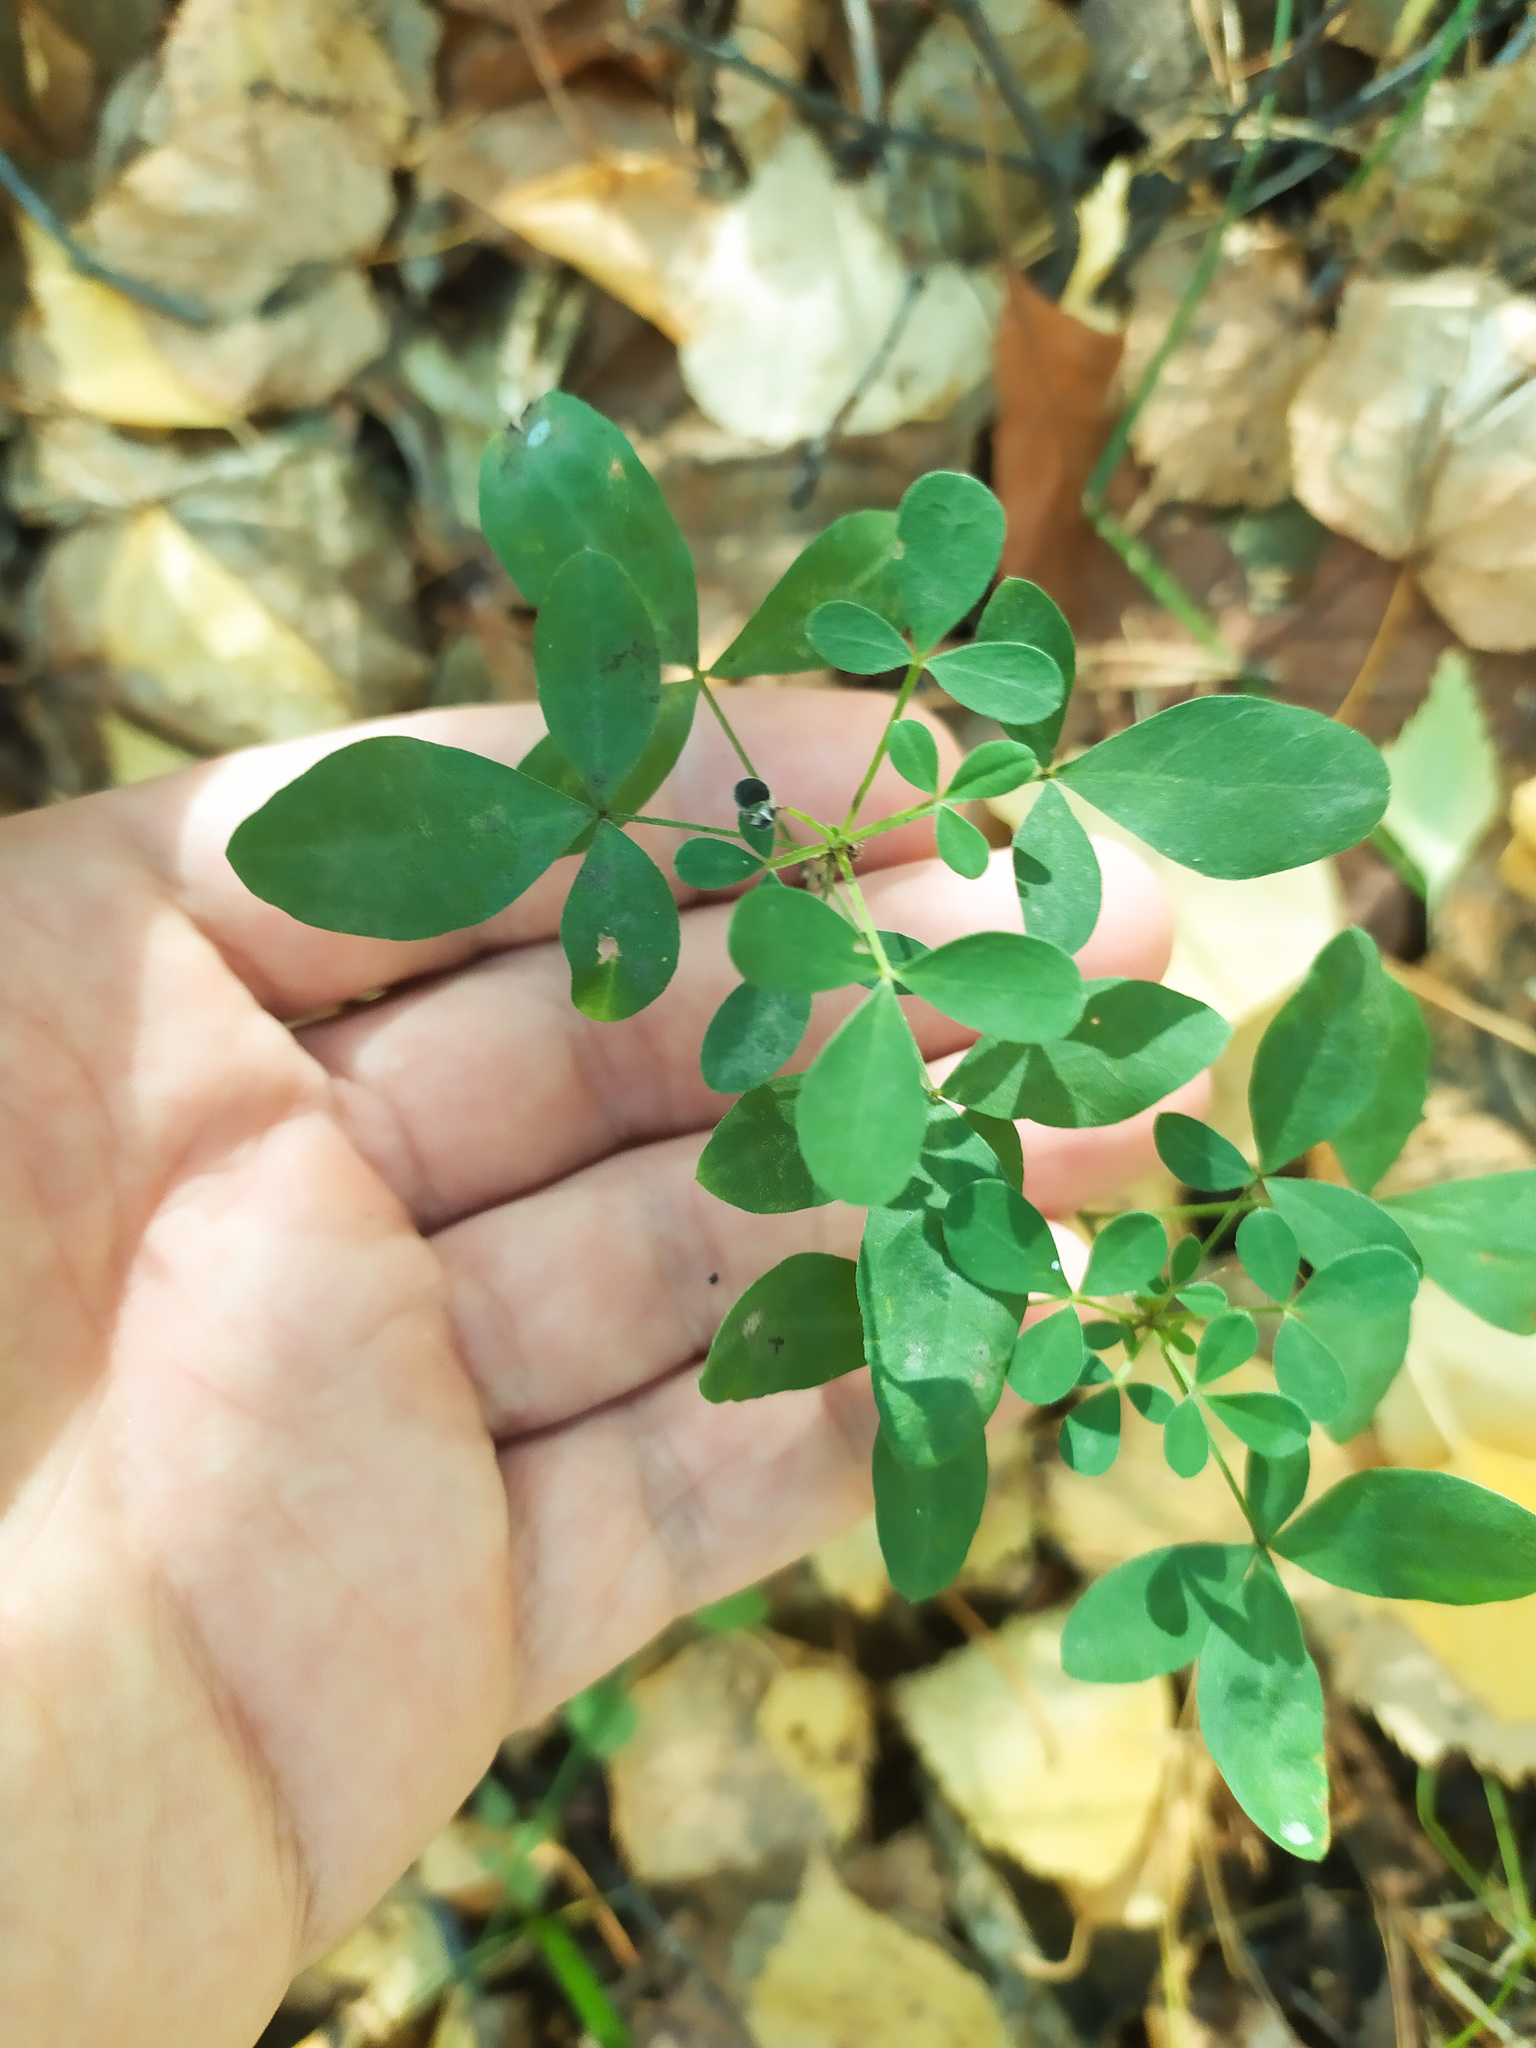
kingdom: Plantae
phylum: Tracheophyta
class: Magnoliopsida
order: Fabales
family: Fabaceae
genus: Chamaecytisus
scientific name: Chamaecytisus ruthenicus
